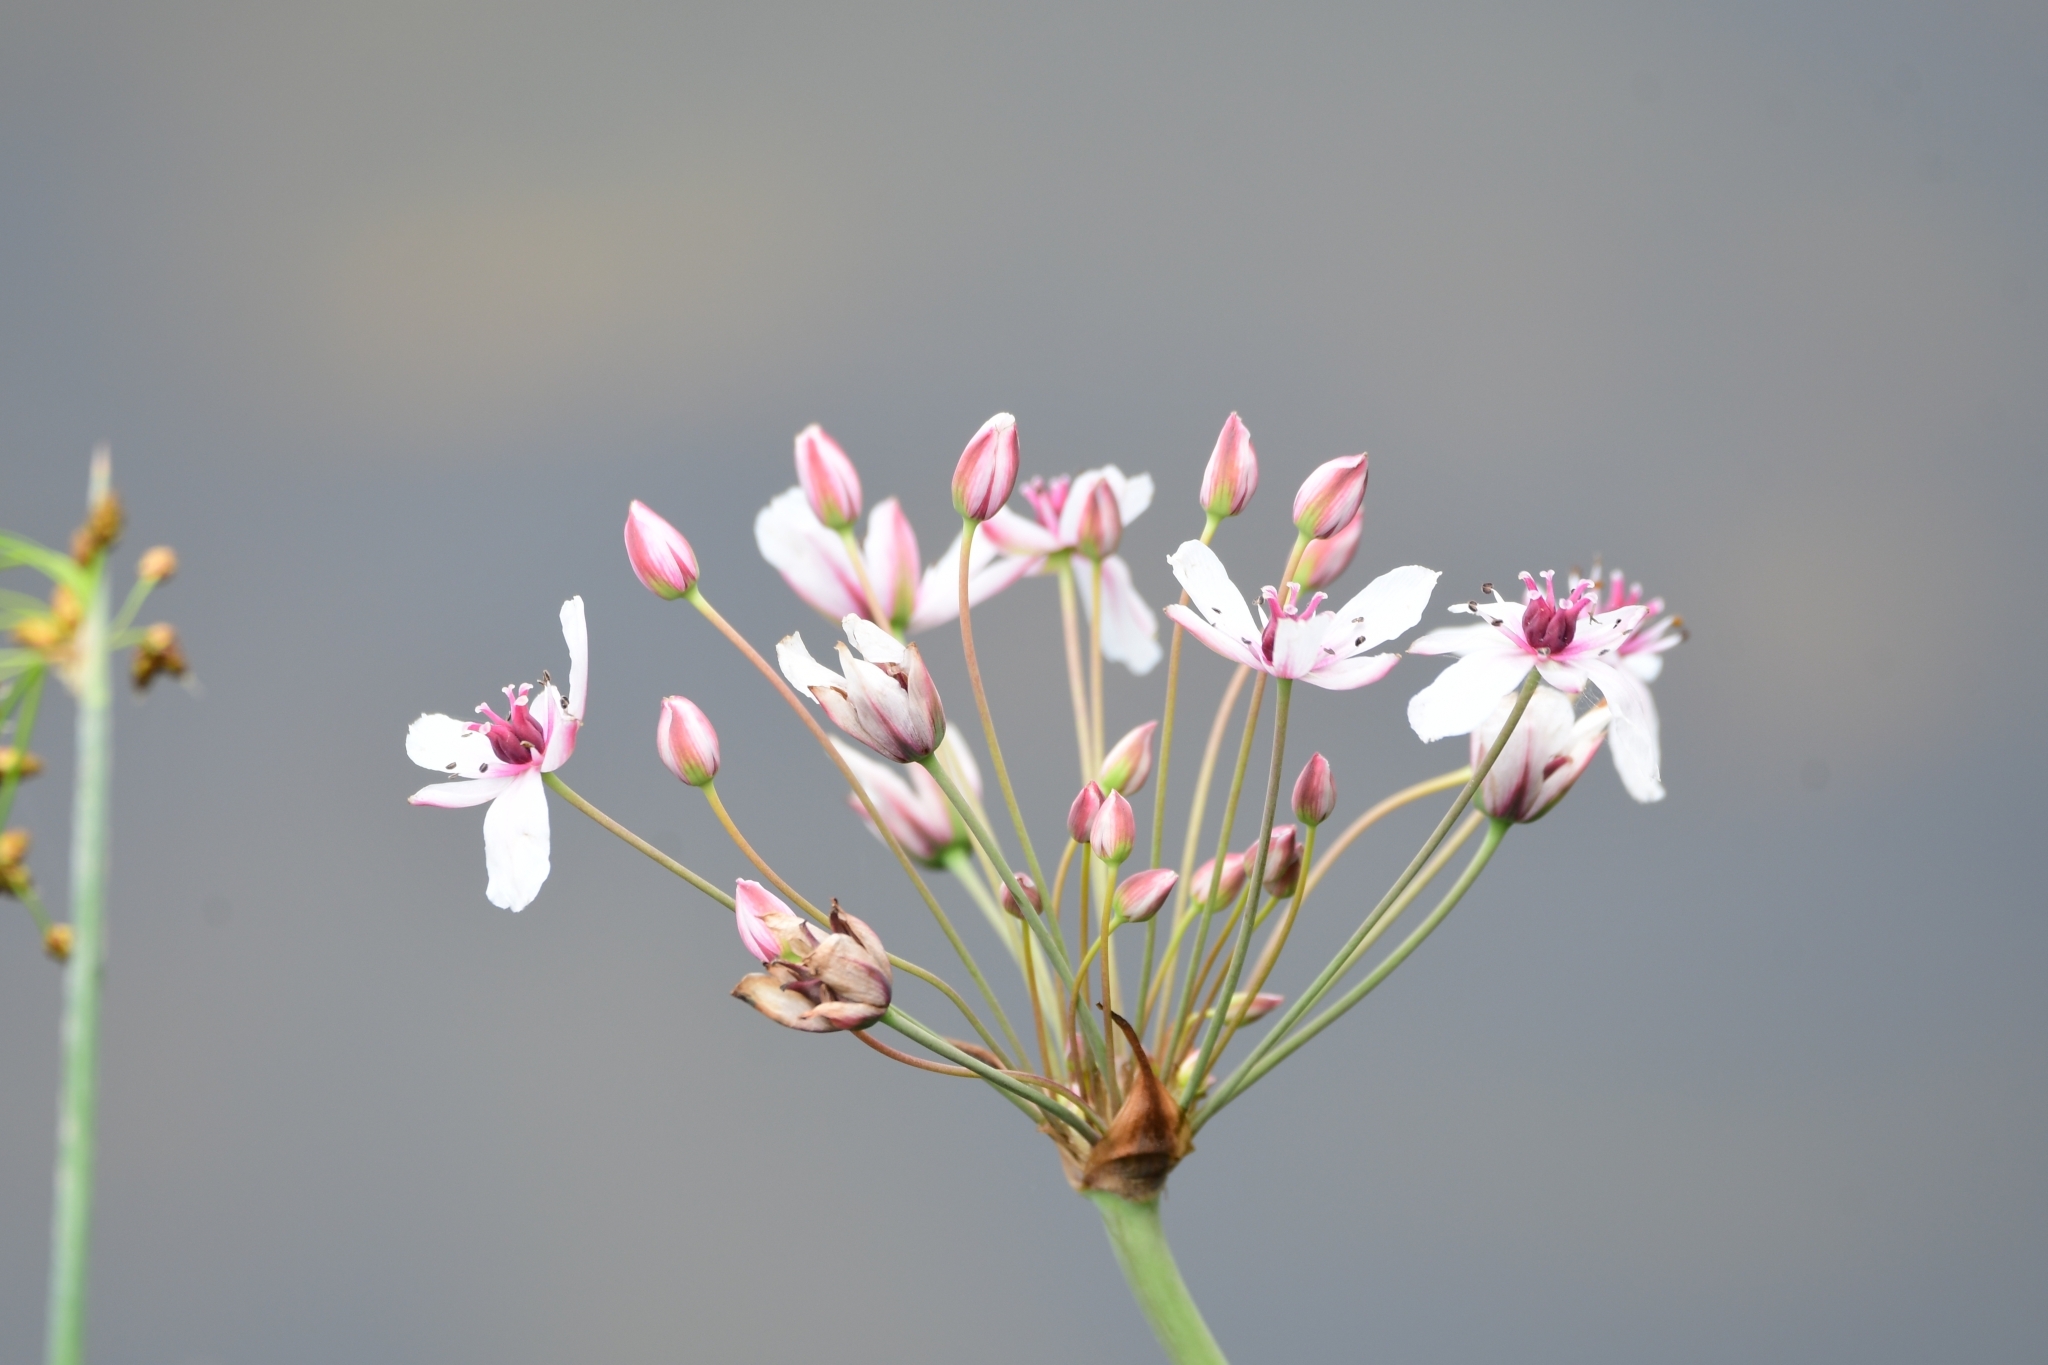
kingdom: Plantae
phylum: Tracheophyta
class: Liliopsida
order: Alismatales
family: Butomaceae
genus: Butomus
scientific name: Butomus umbellatus
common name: Flowering-rush
